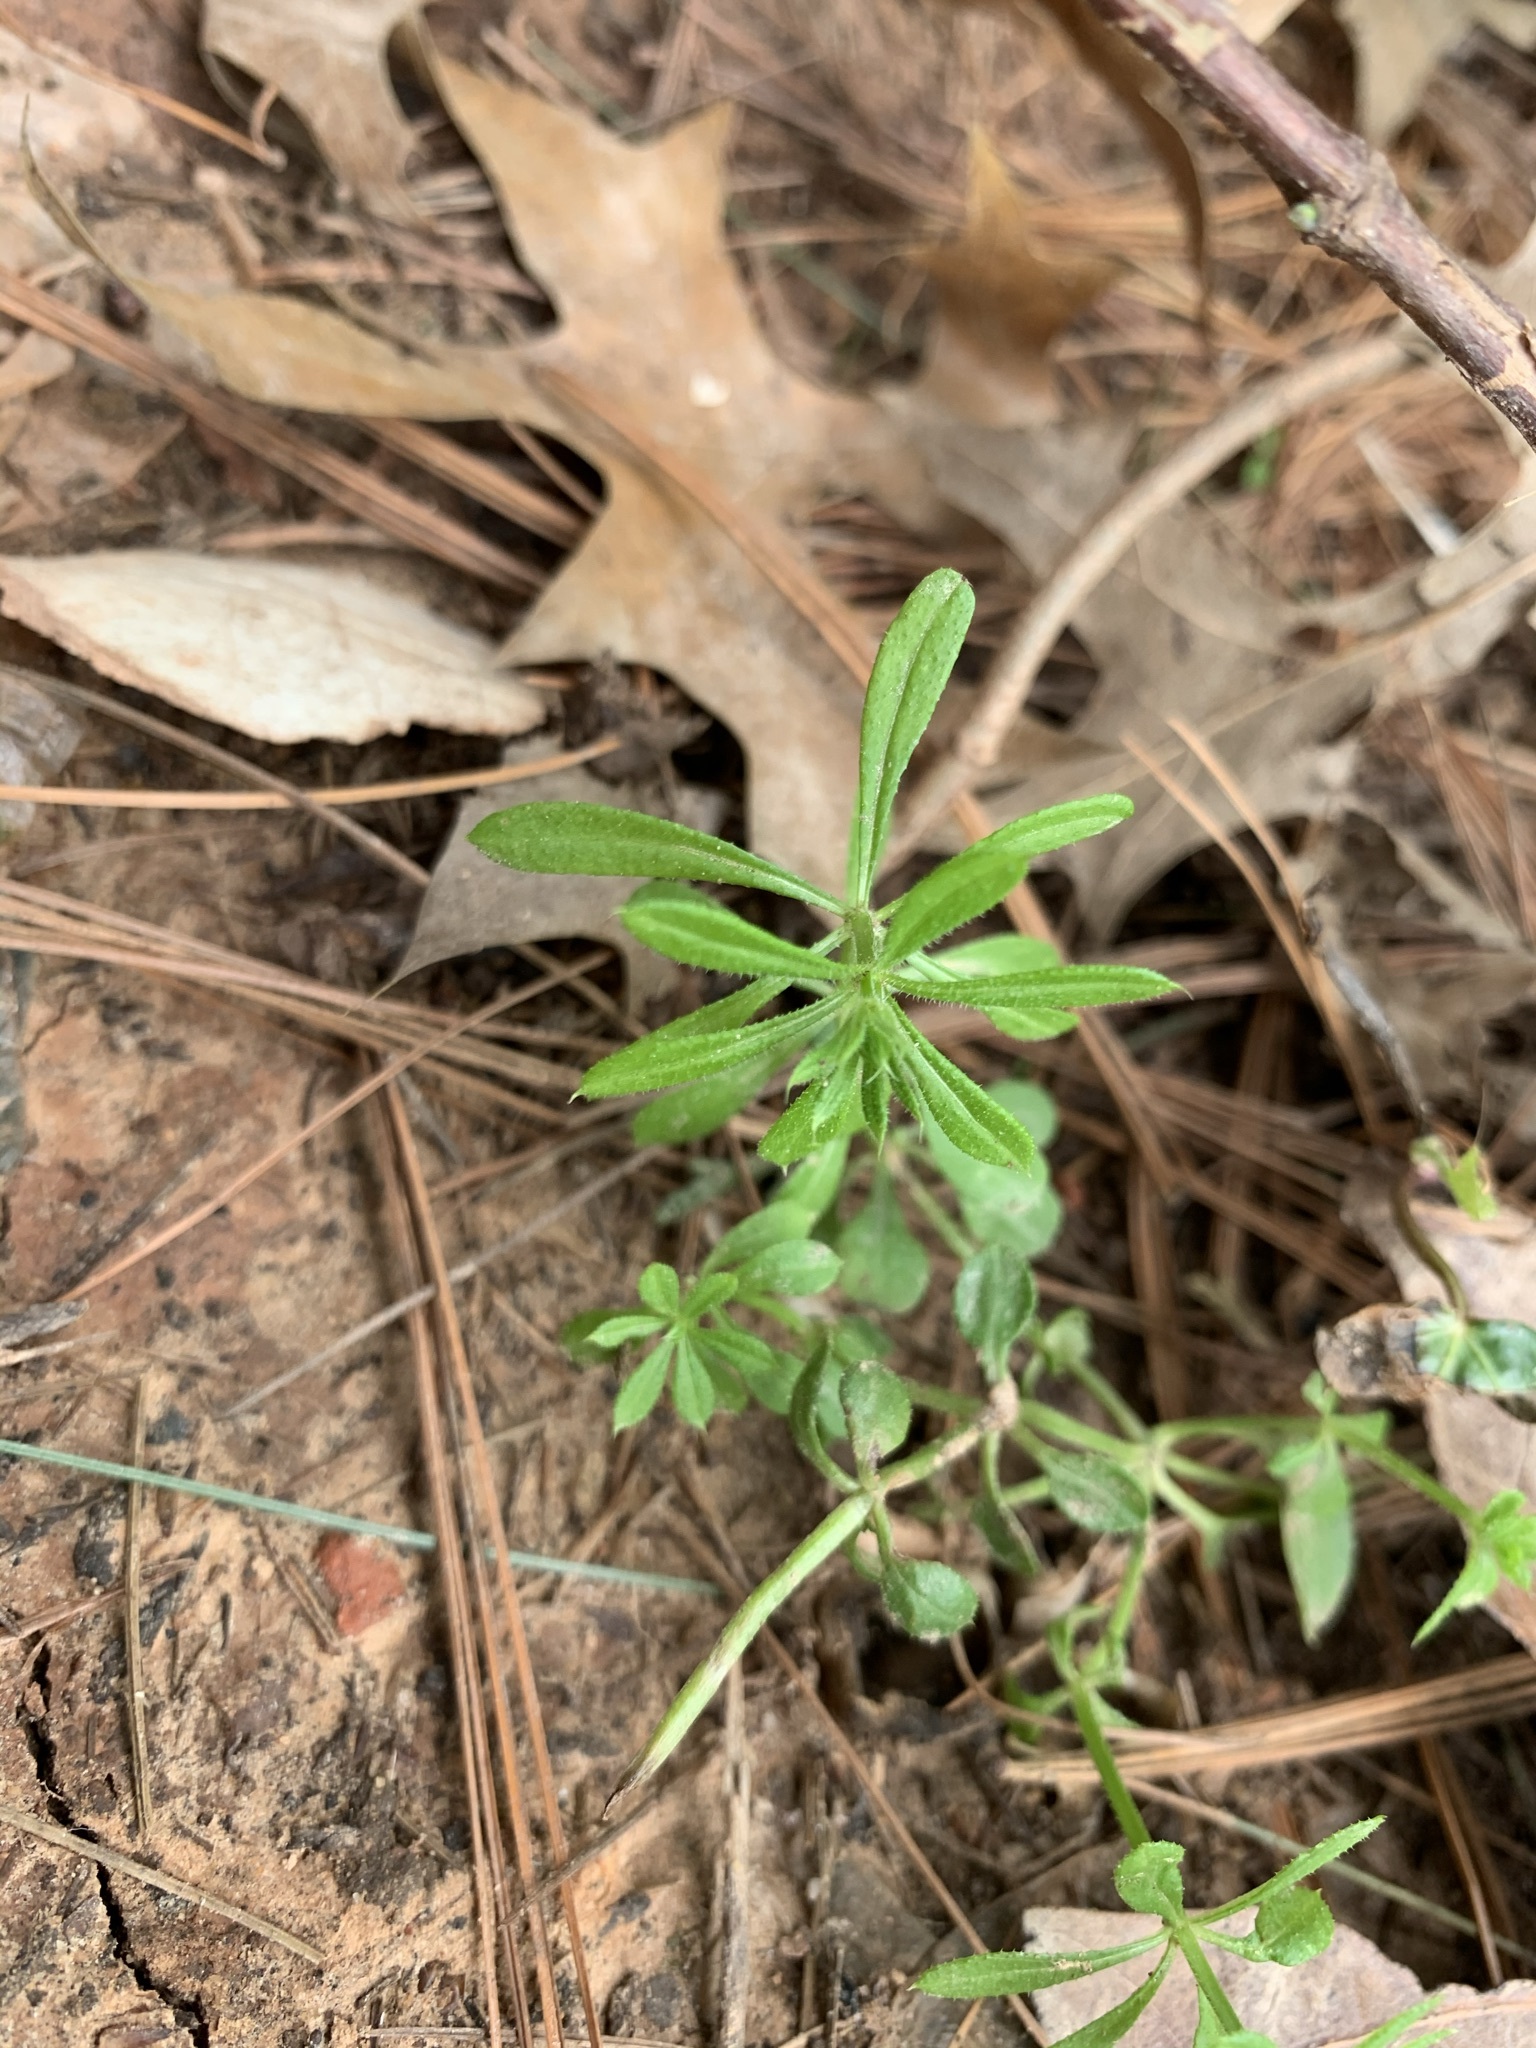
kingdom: Plantae
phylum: Tracheophyta
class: Magnoliopsida
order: Gentianales
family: Rubiaceae
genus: Galium
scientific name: Galium aparine
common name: Cleavers
